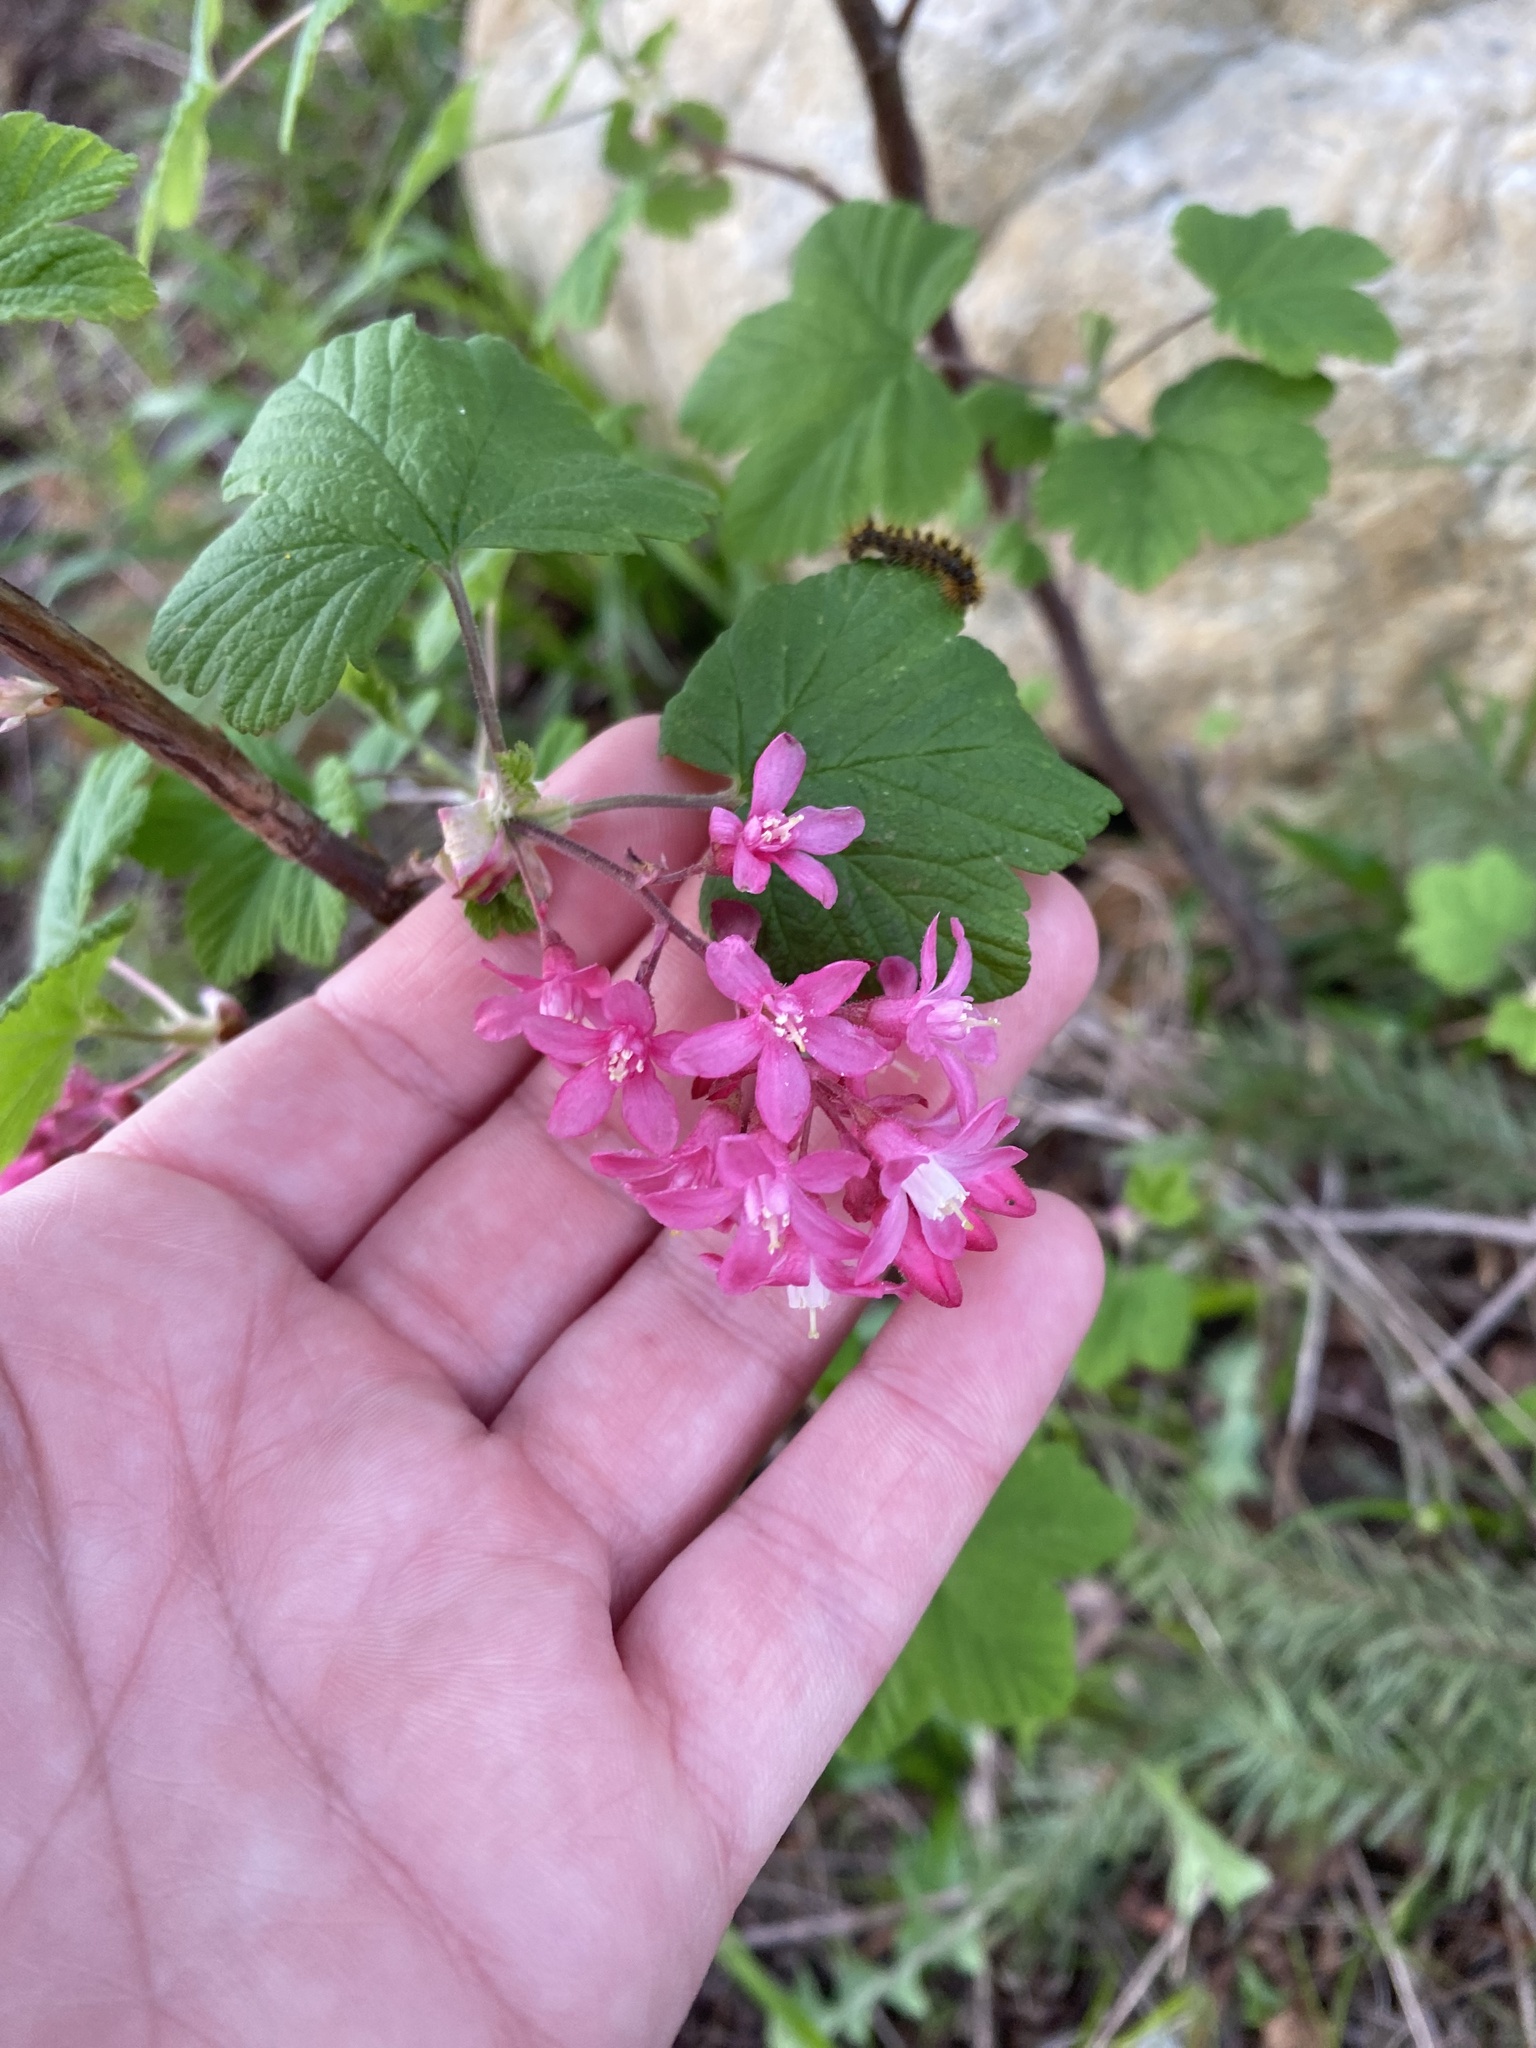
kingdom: Plantae
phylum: Tracheophyta
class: Magnoliopsida
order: Saxifragales
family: Grossulariaceae
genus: Ribes
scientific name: Ribes sanguineum
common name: Flowering currant
